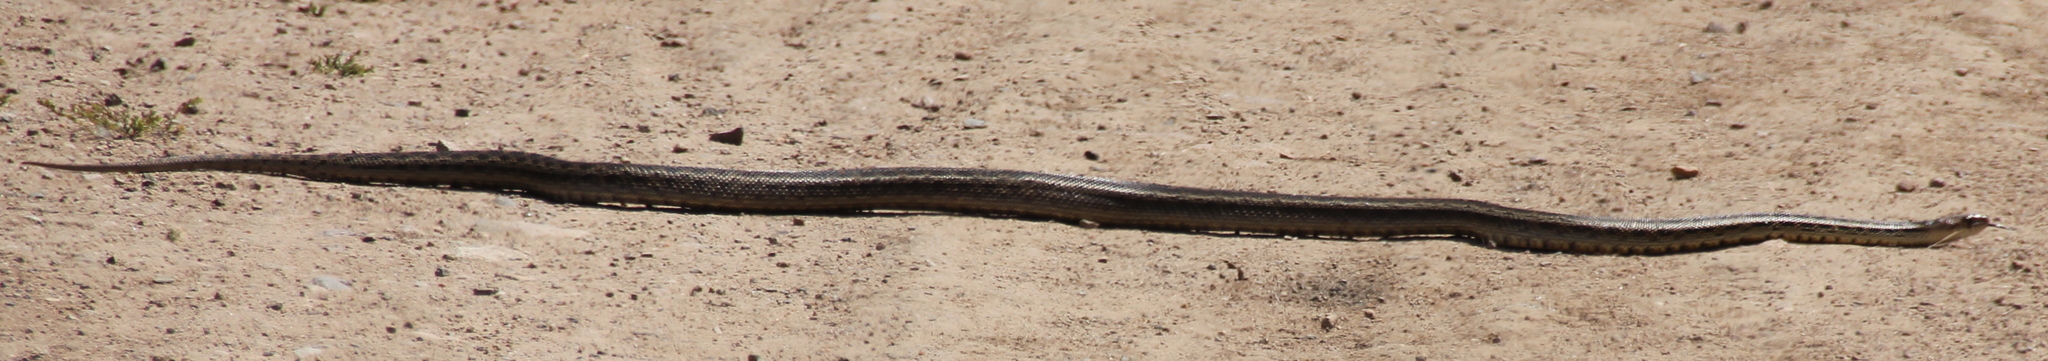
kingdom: Animalia
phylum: Chordata
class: Squamata
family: Colubridae
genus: Pituophis
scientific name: Pituophis catenifer
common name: Gopher snake
